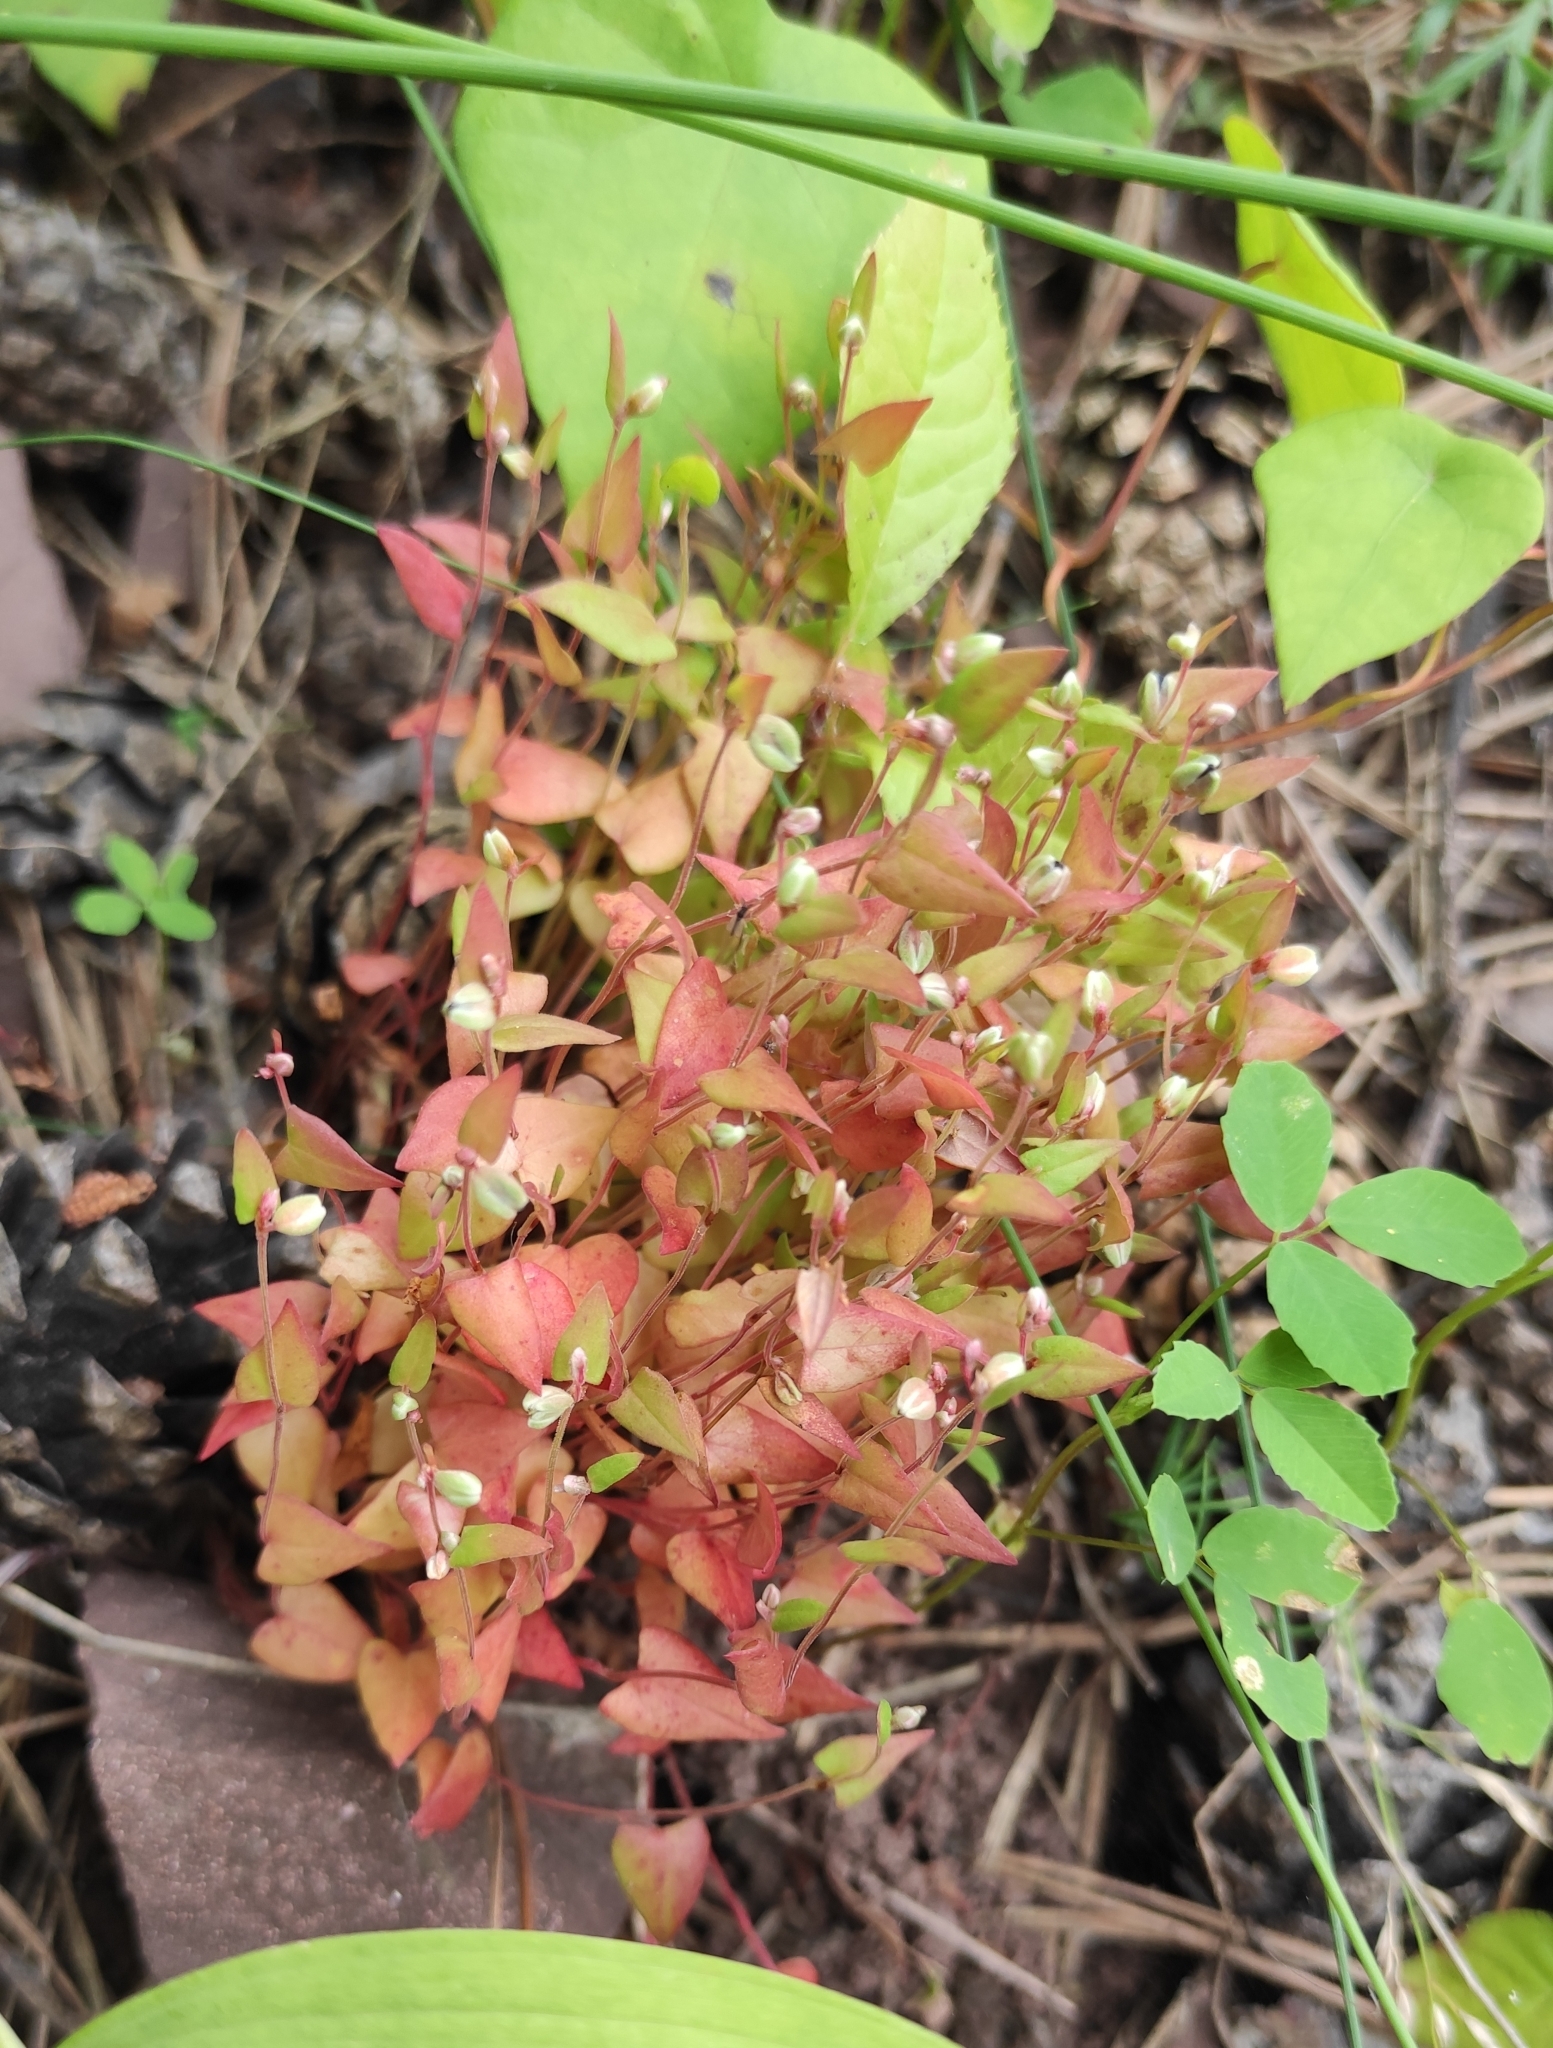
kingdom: Plantae
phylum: Tracheophyta
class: Magnoliopsida
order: Gentianales
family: Gentianaceae
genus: Swertia
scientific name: Swertia dichotoma
